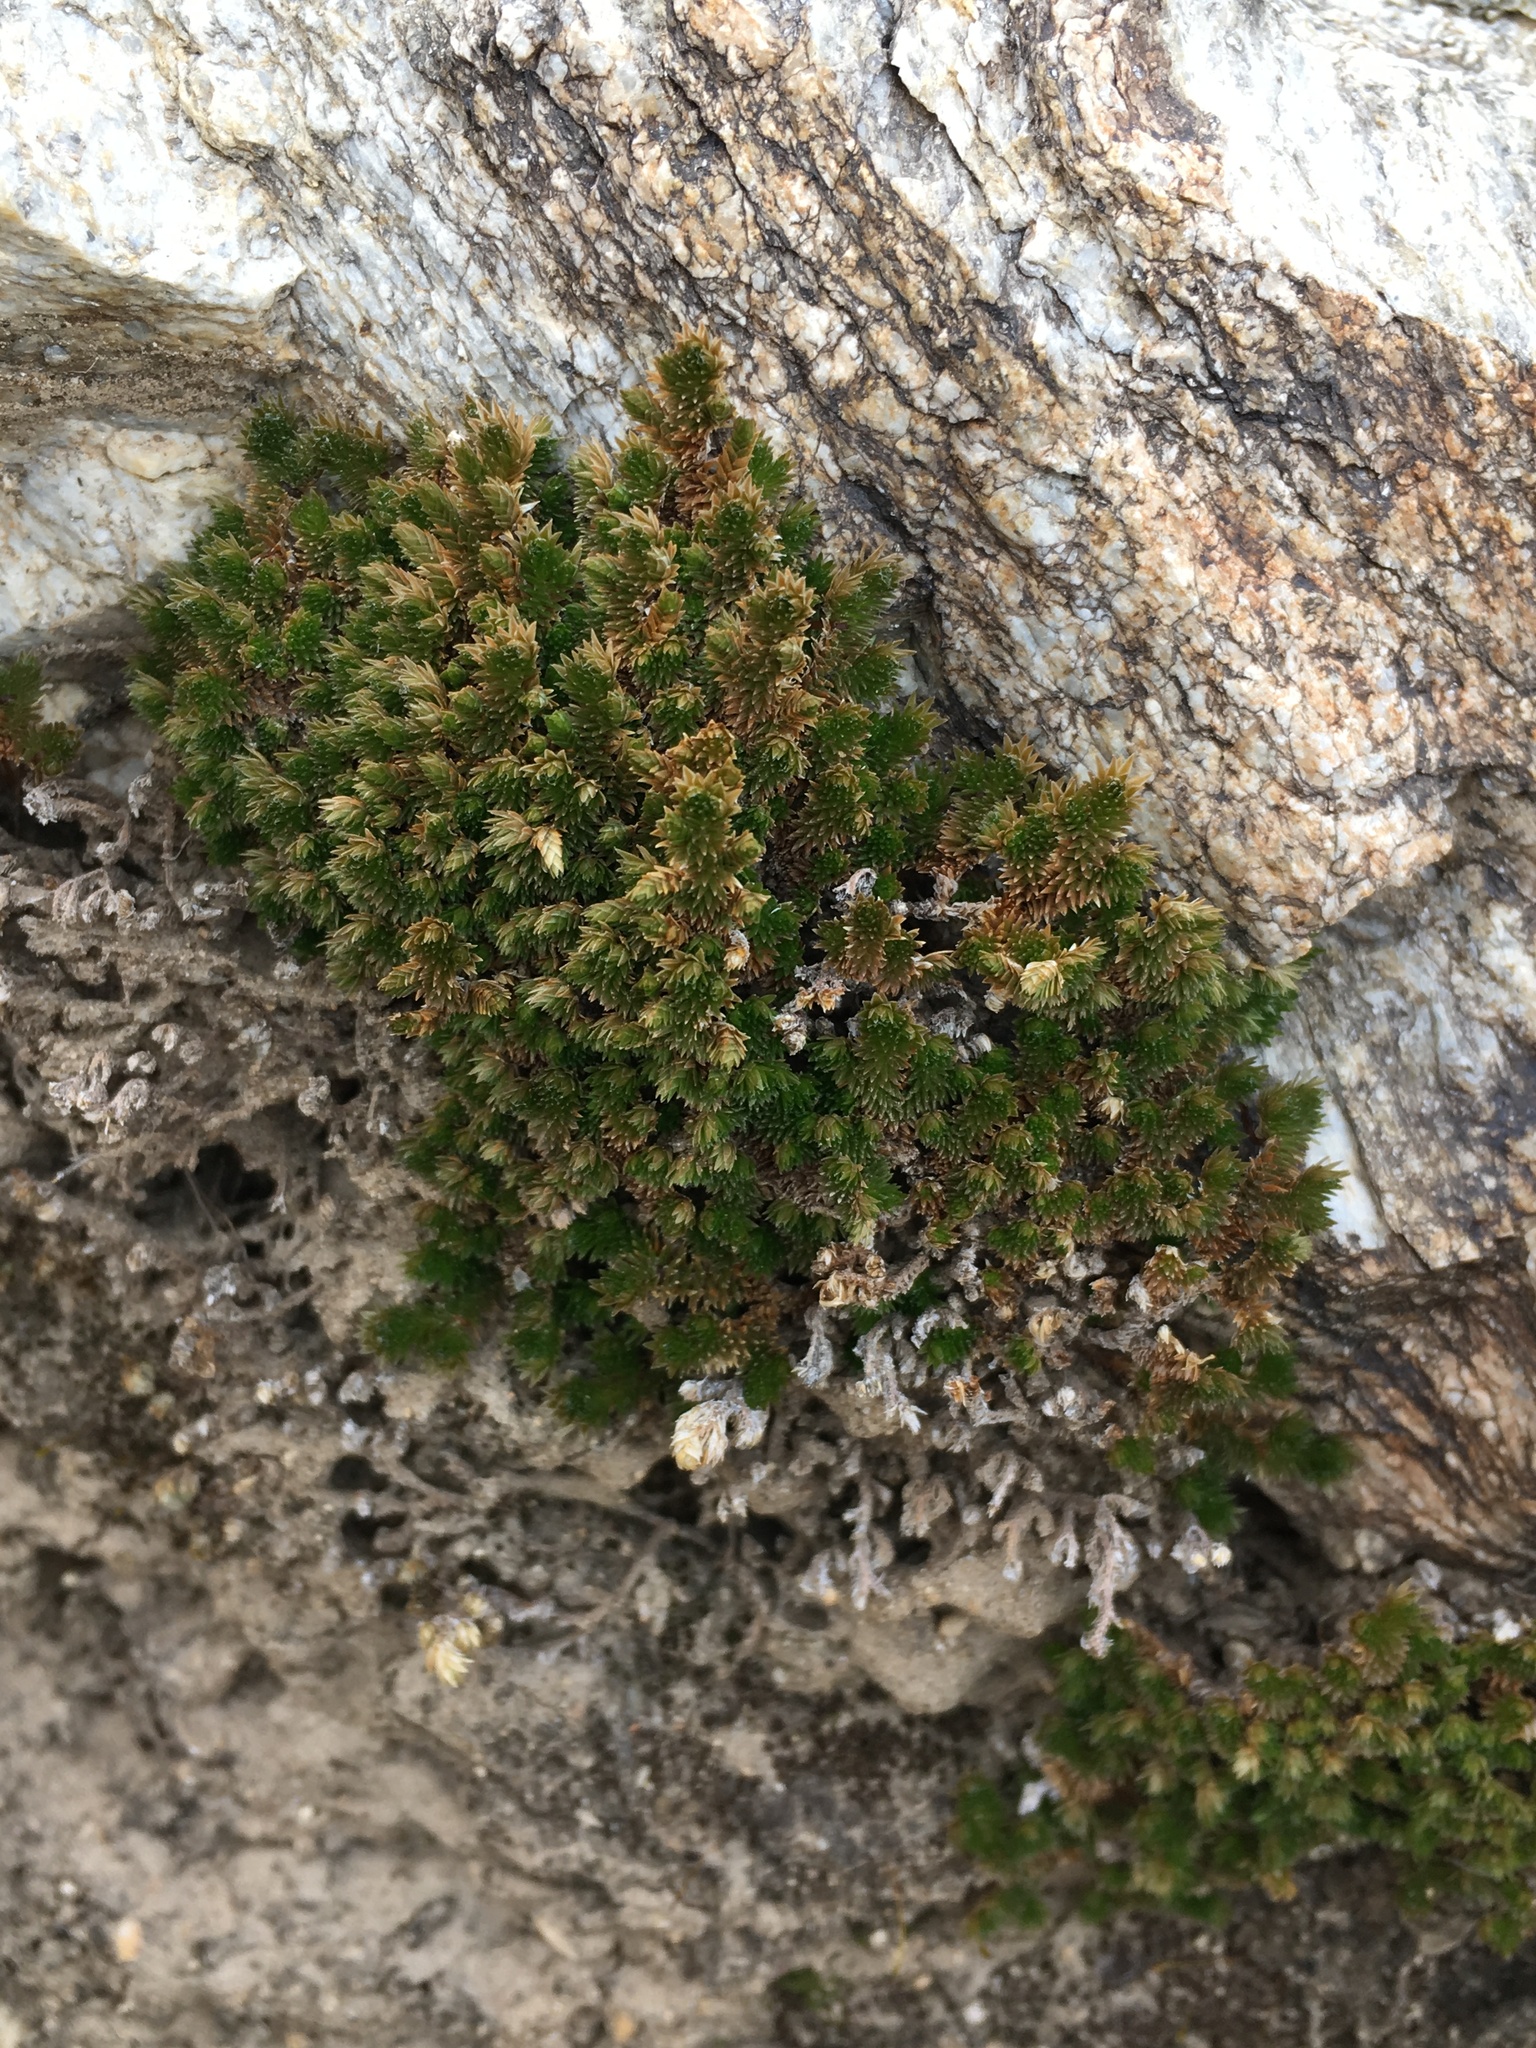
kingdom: Plantae
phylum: Tracheophyta
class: Lycopodiopsida
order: Selaginellales
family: Selaginellaceae
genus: Selaginella
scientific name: Selaginella eremophila
